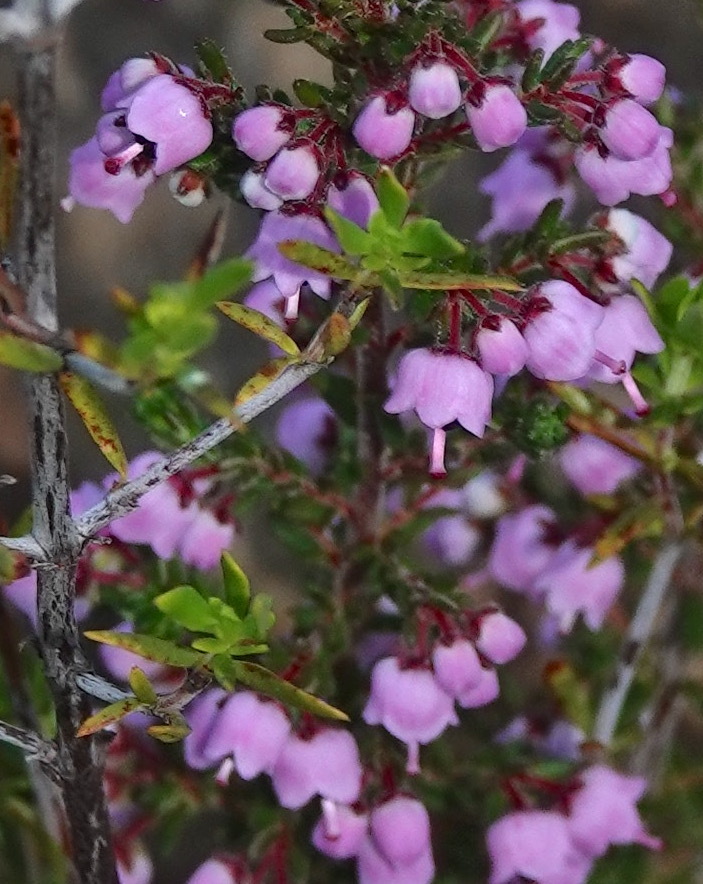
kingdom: Plantae
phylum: Tracheophyta
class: Magnoliopsida
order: Ericales
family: Ericaceae
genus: Erica
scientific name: Erica bicolor
